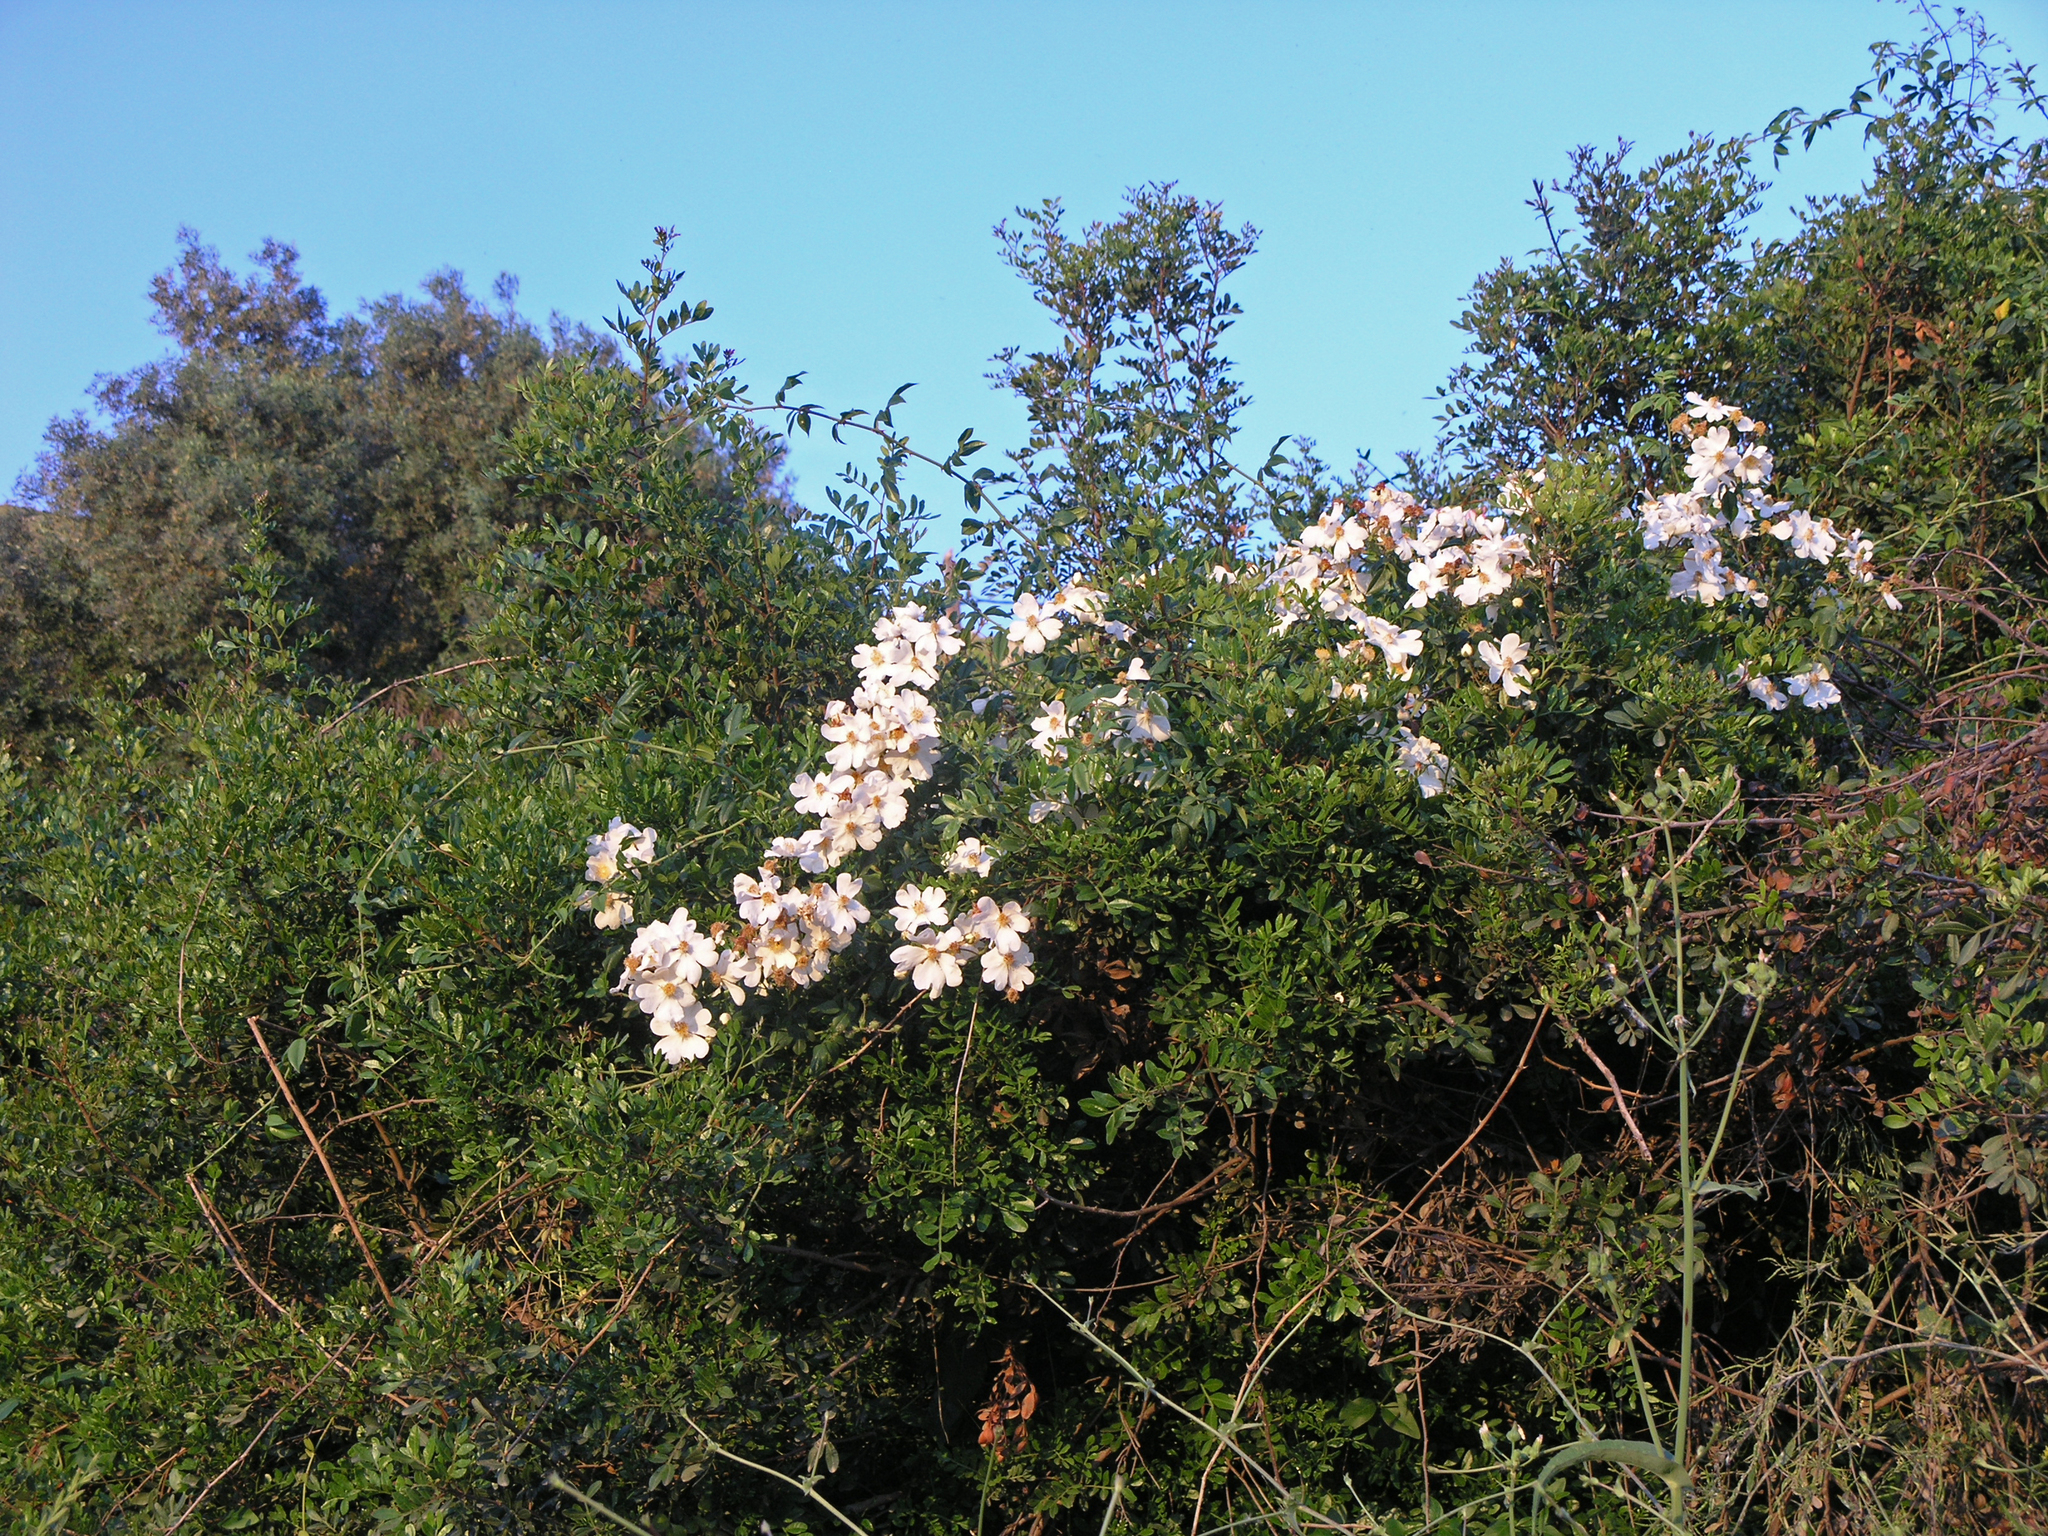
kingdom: Plantae
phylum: Tracheophyta
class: Magnoliopsida
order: Rosales
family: Rosaceae
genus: Rosa
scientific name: Rosa sempervirens
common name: Evergreen rose
